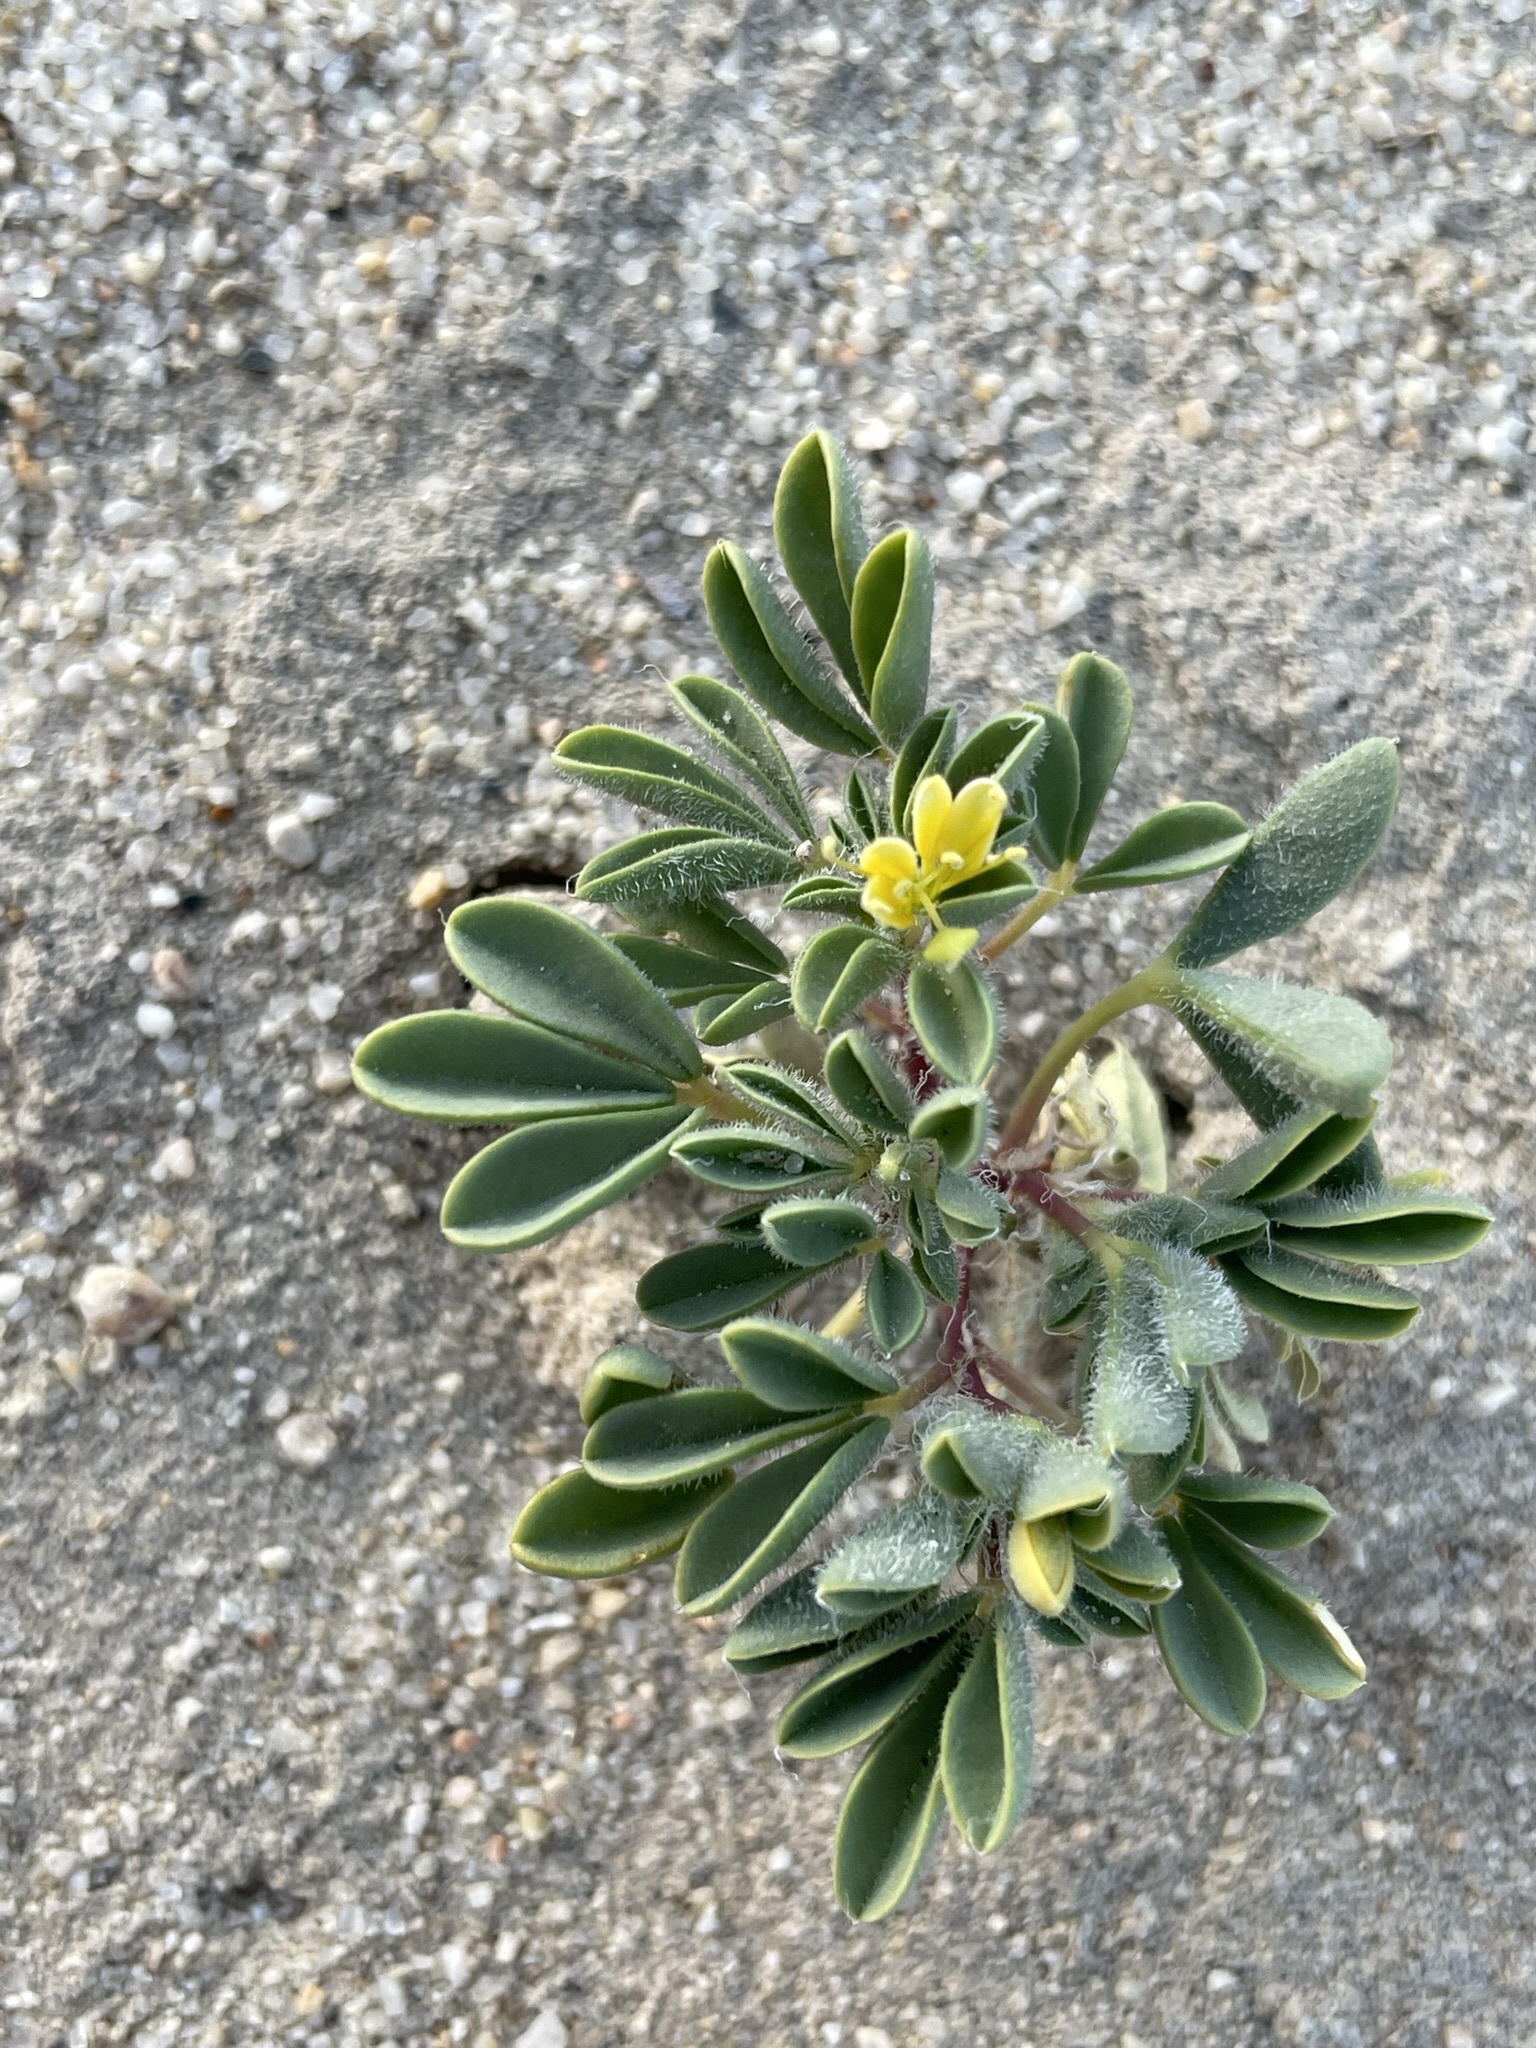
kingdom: Plantae
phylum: Tracheophyta
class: Magnoliopsida
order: Brassicales
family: Cleomaceae
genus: Cleomella
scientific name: Cleomella obtusifolia
